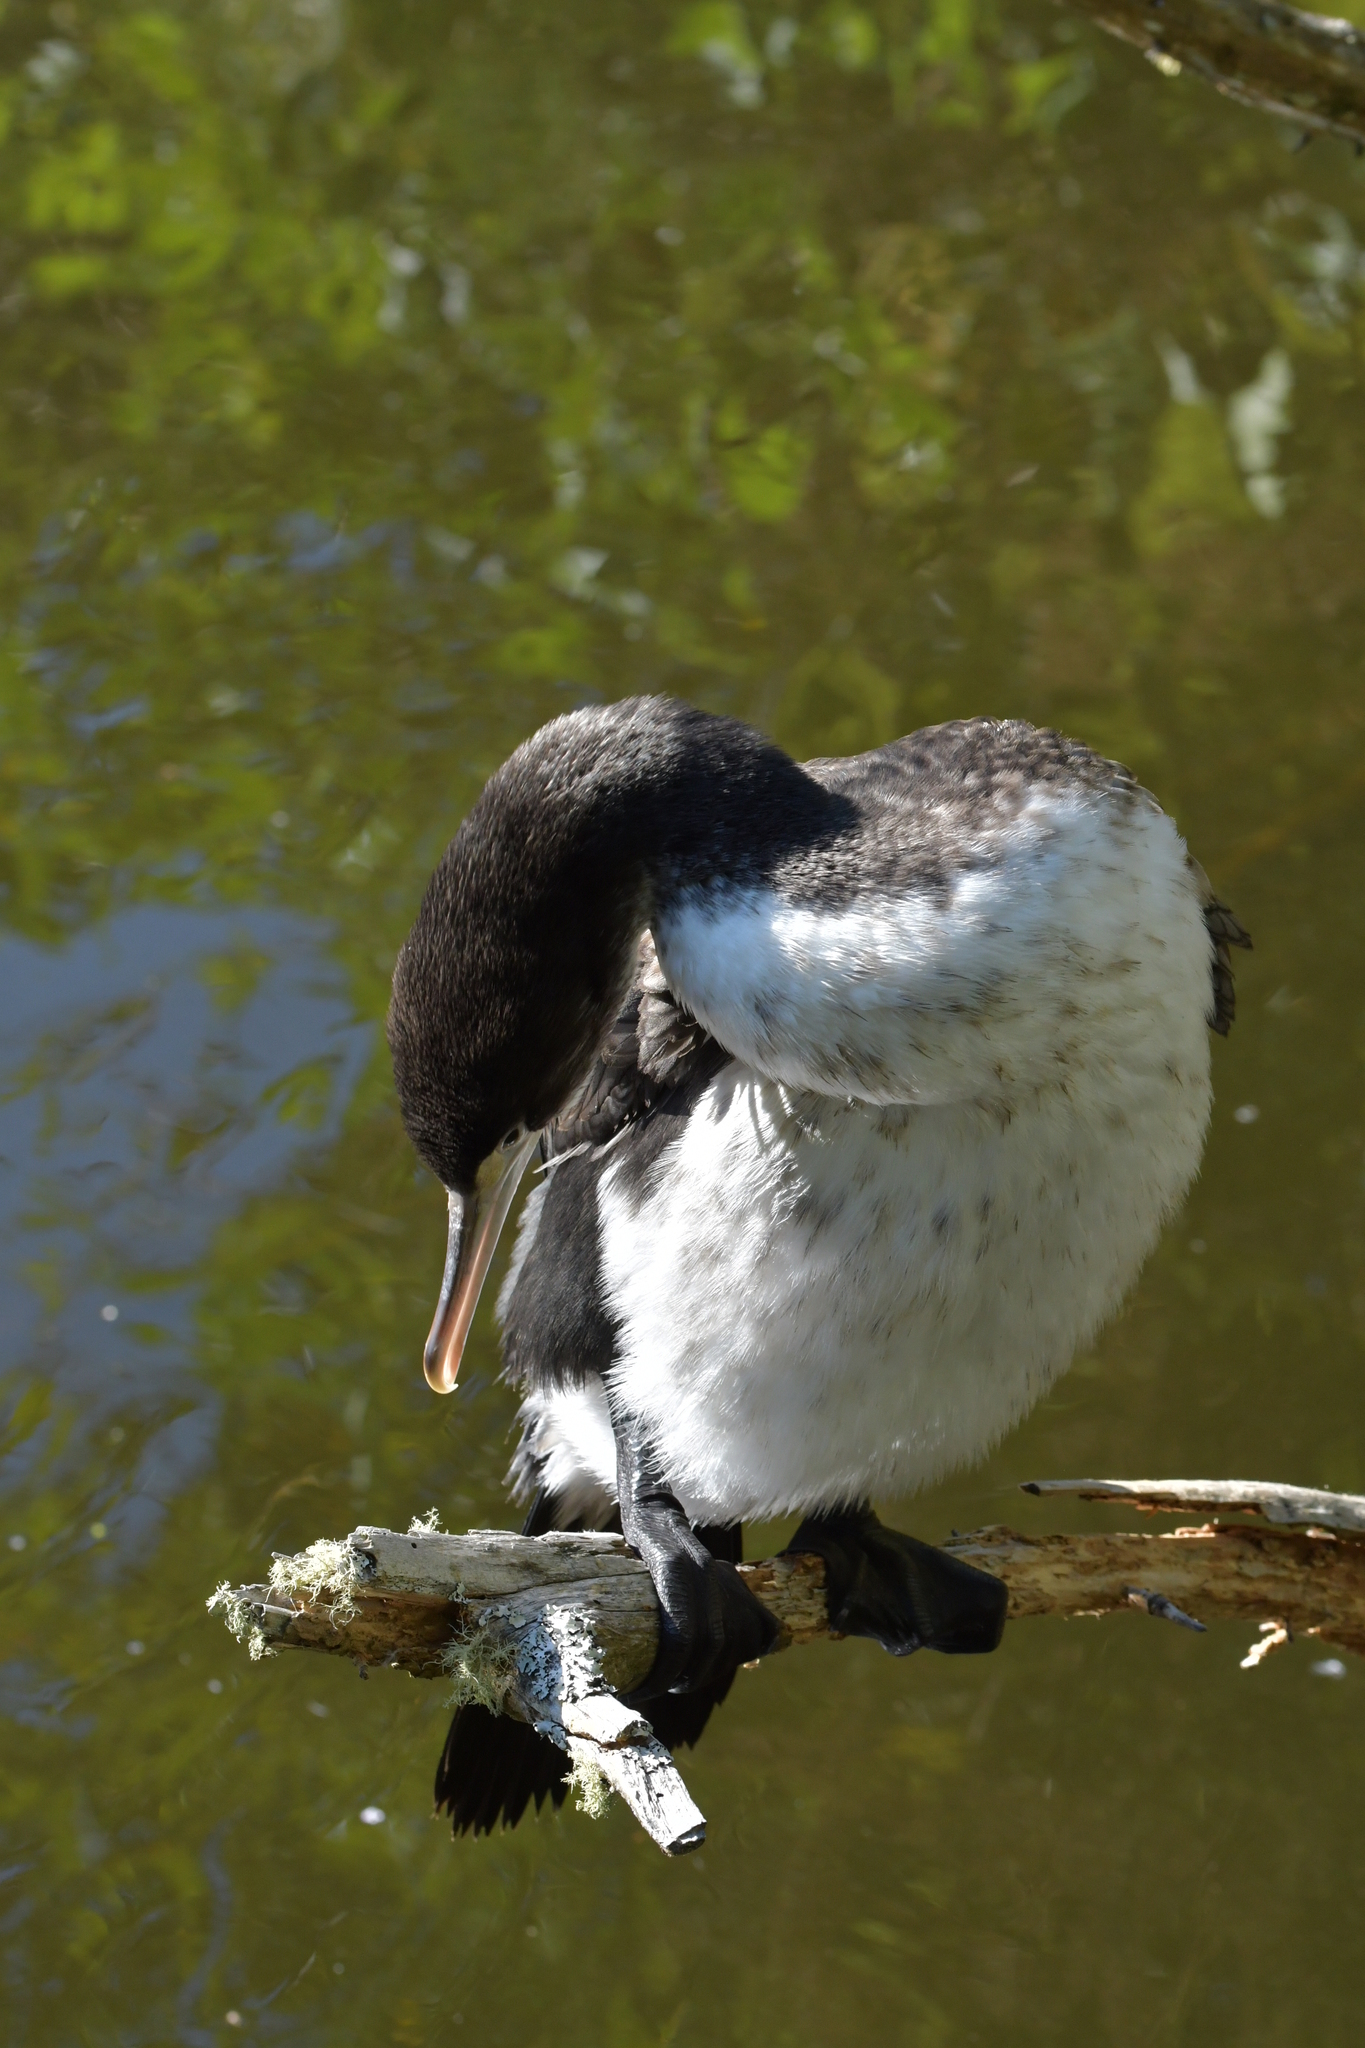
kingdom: Animalia
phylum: Chordata
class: Aves
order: Suliformes
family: Phalacrocoracidae
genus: Phalacrocorax
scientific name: Phalacrocorax varius
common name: Pied cormorant
